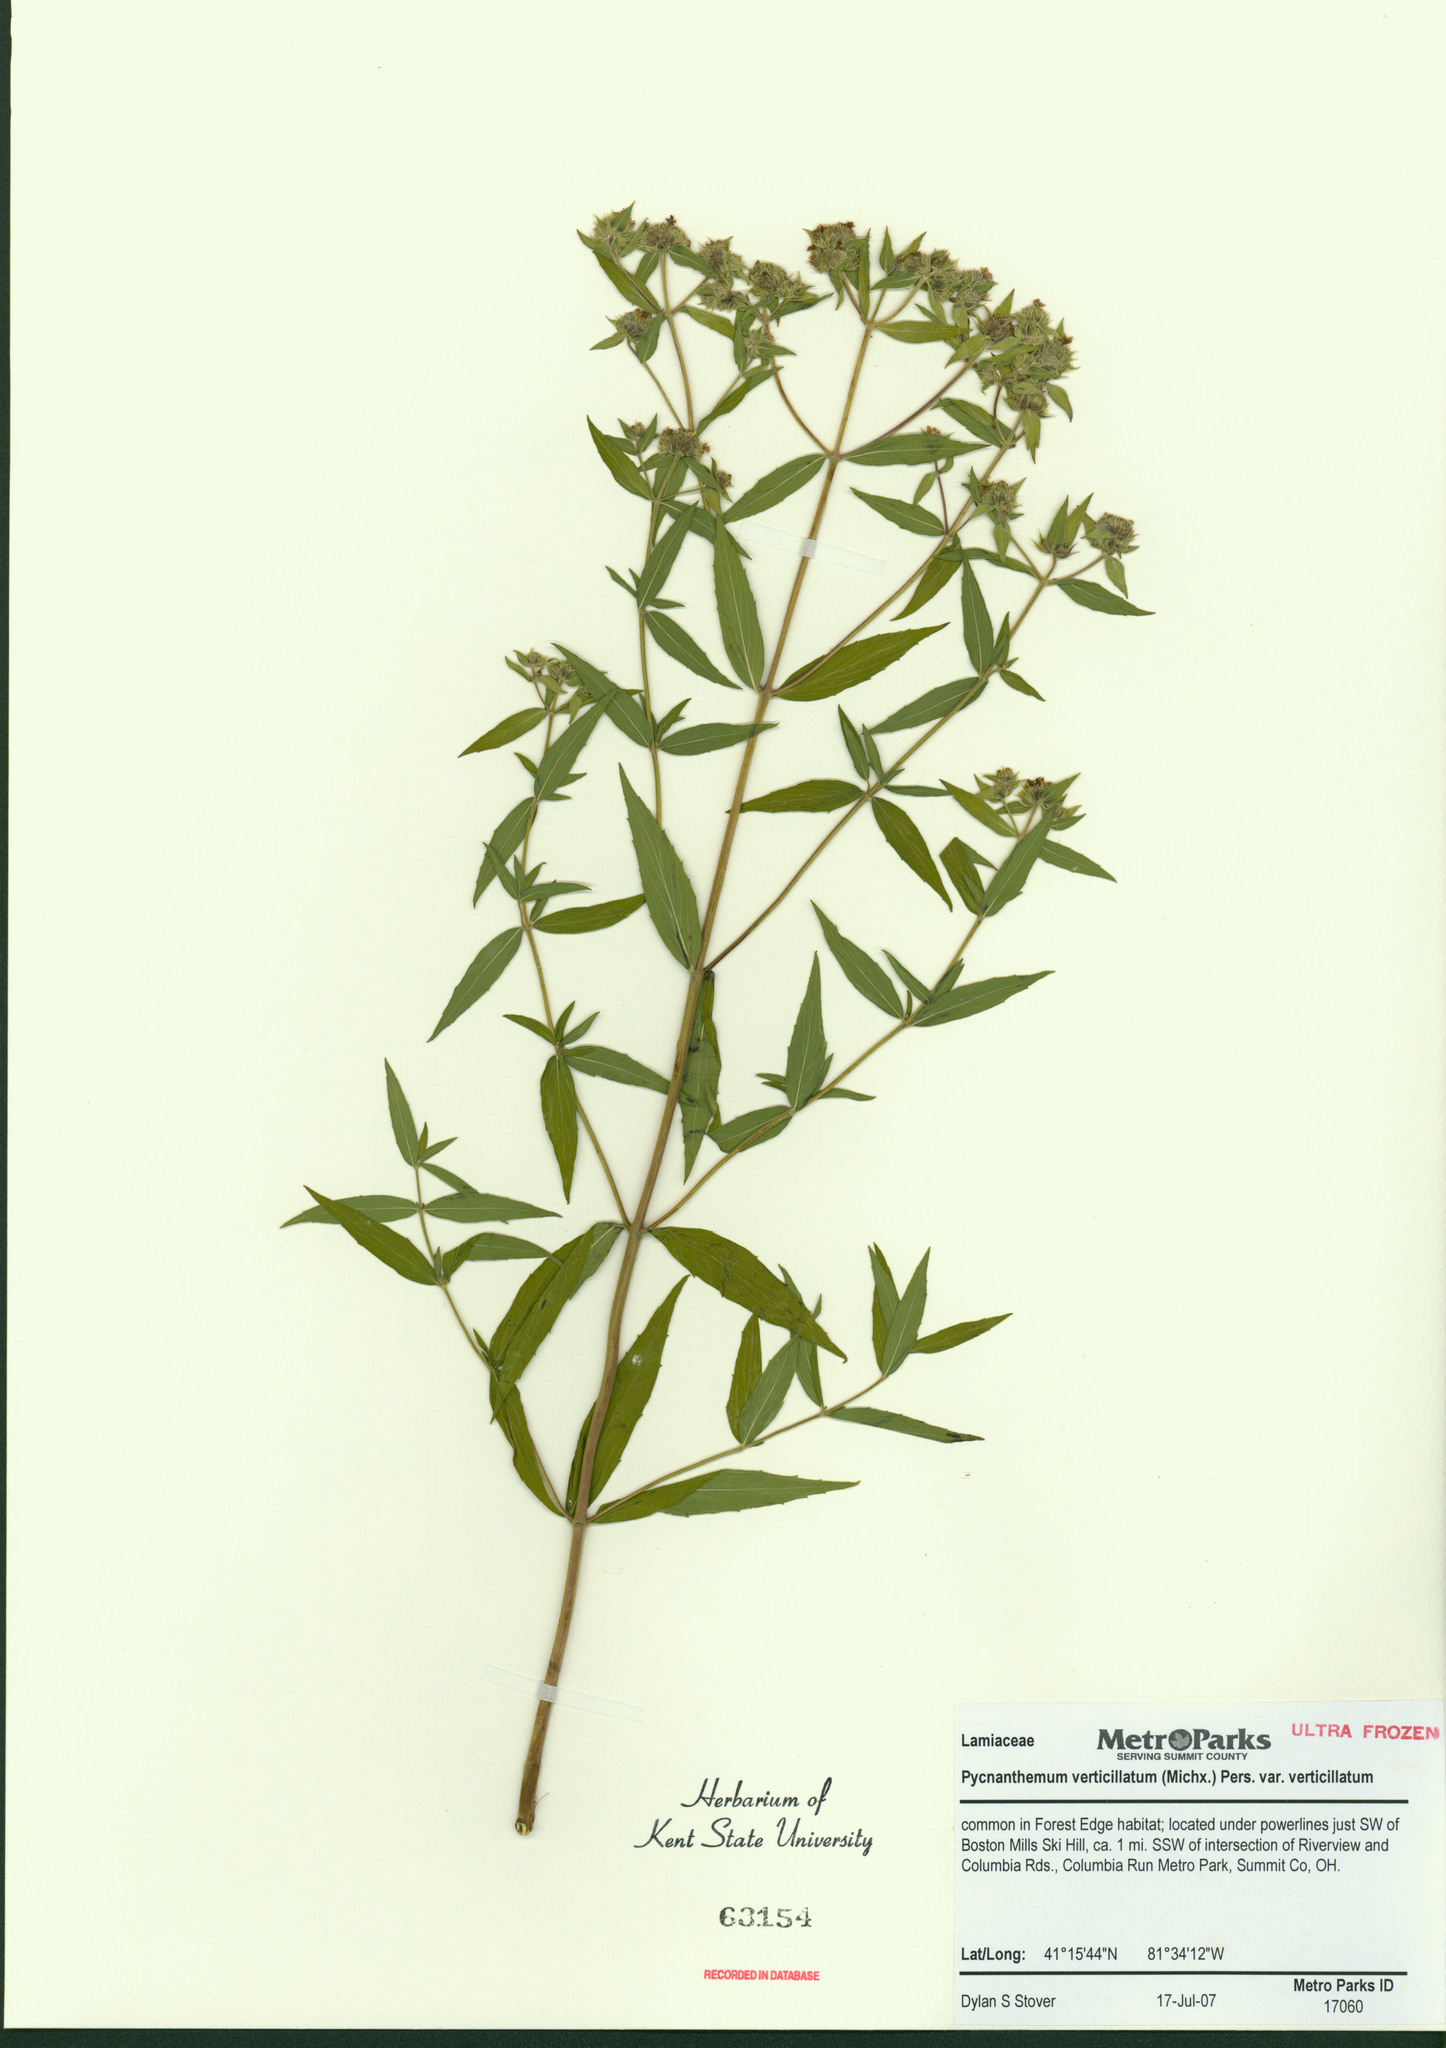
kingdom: Plantae
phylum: Tracheophyta
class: Magnoliopsida
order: Lamiales
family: Lamiaceae
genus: Pycnanthemum
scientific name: Pycnanthemum verticillatum
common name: Whorled mountain-mint
